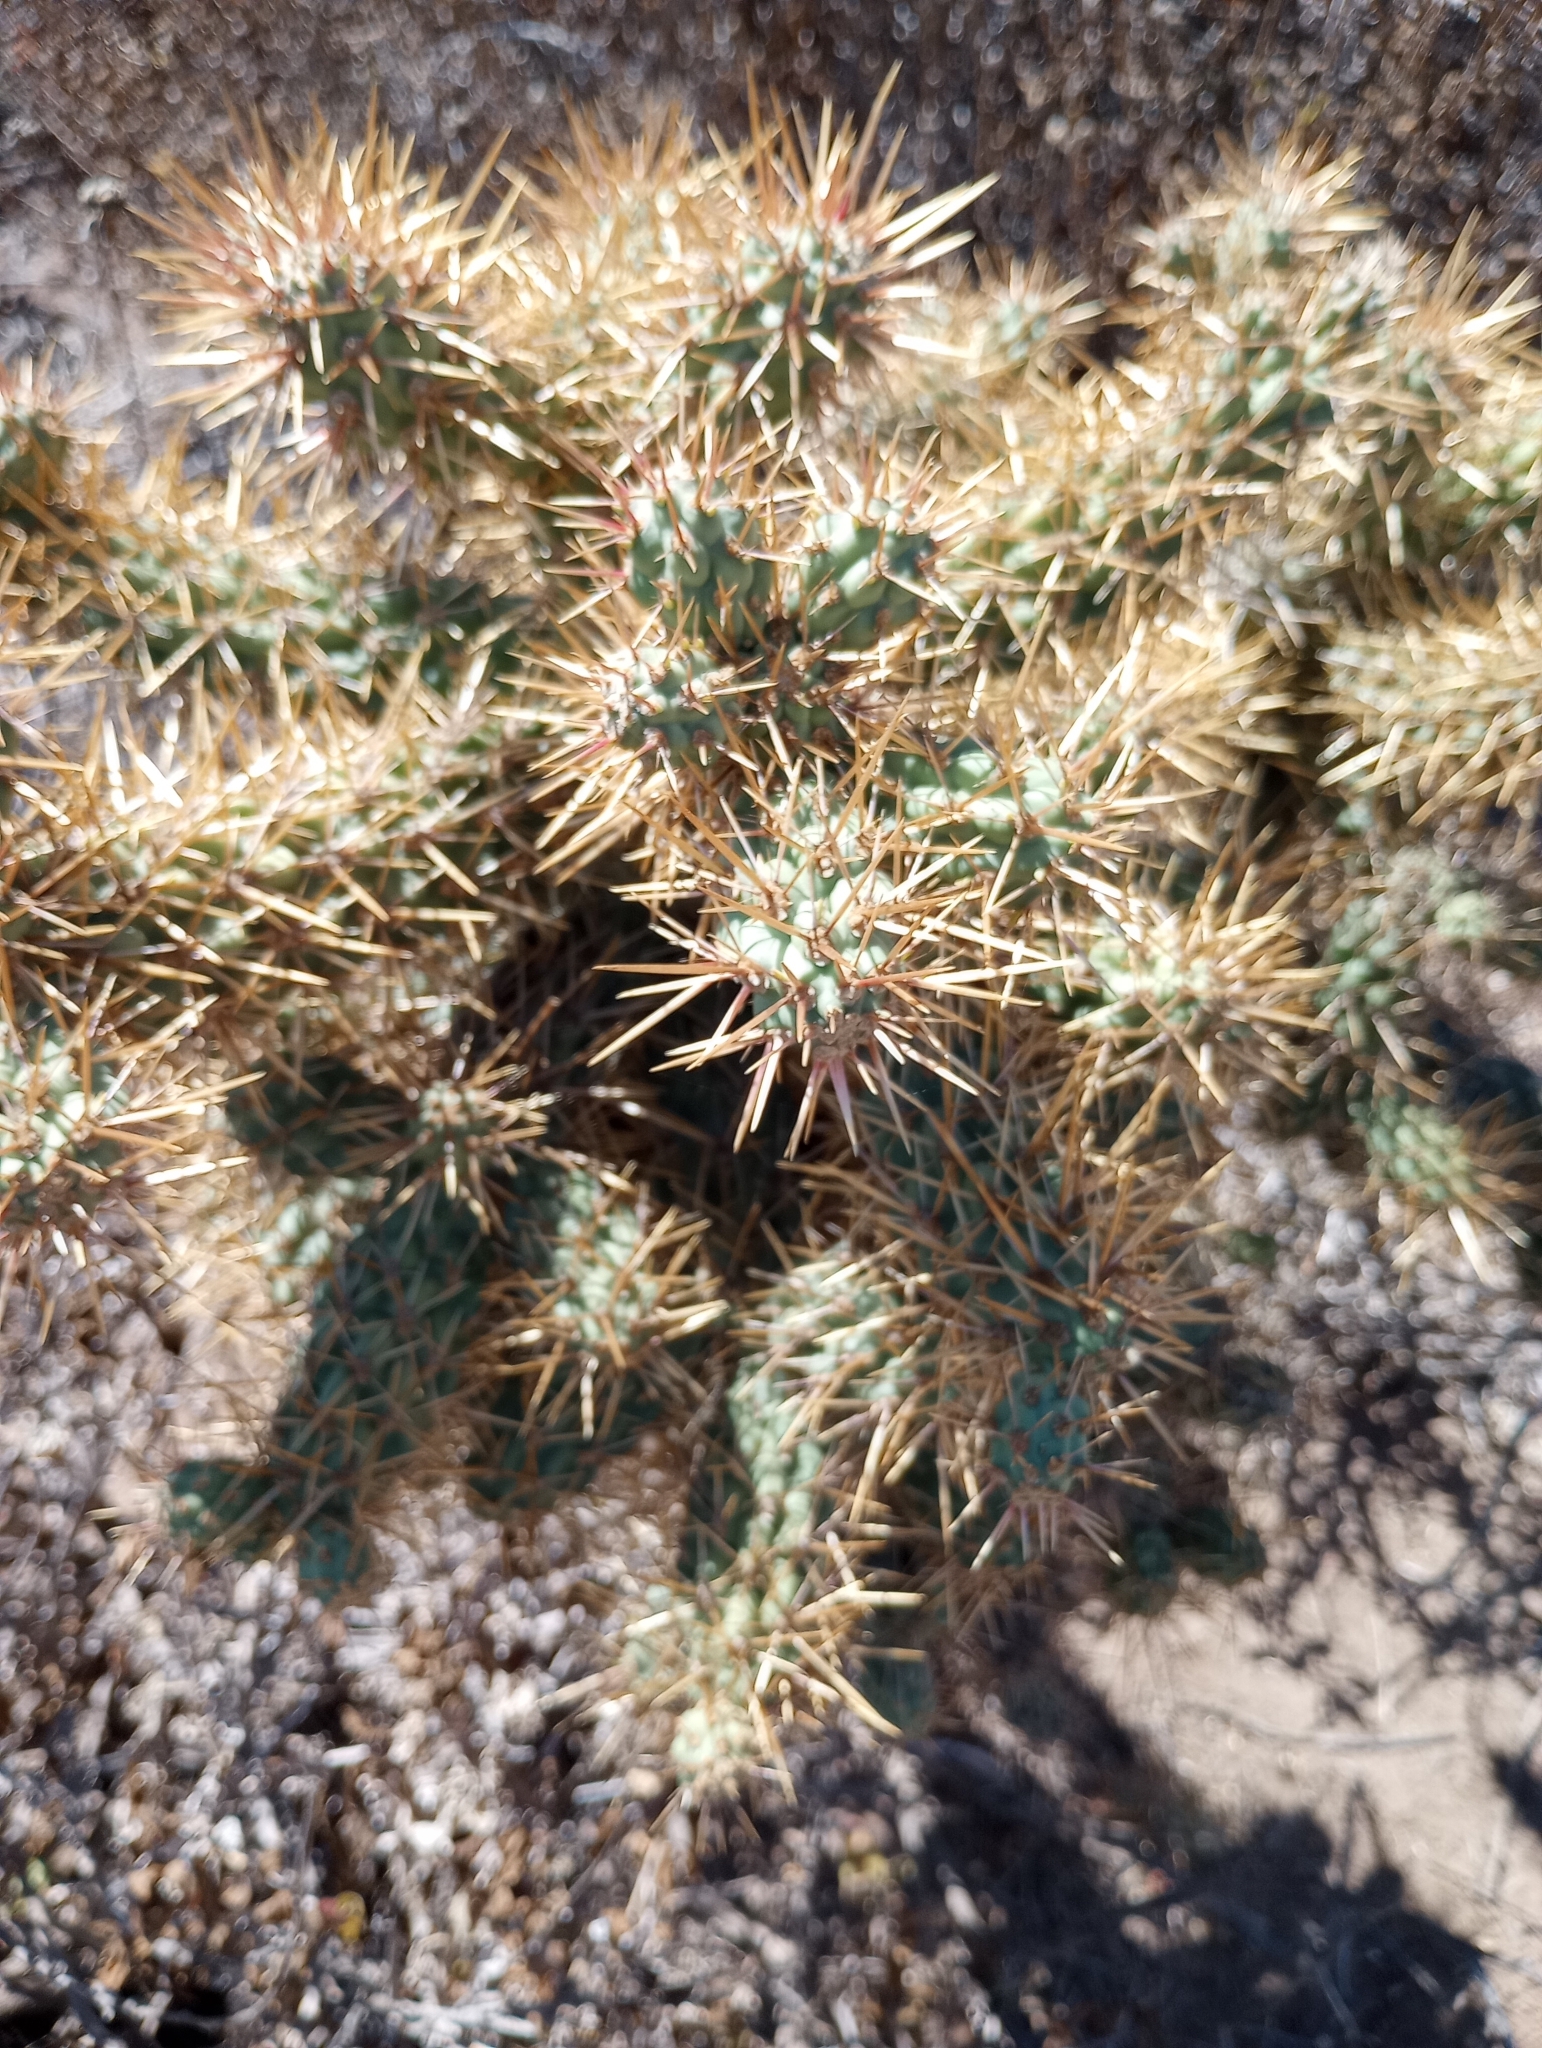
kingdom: Plantae
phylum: Tracheophyta
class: Magnoliopsida
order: Caryophyllales
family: Cactaceae
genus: Cylindropuntia
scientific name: Cylindropuntia prolifera
